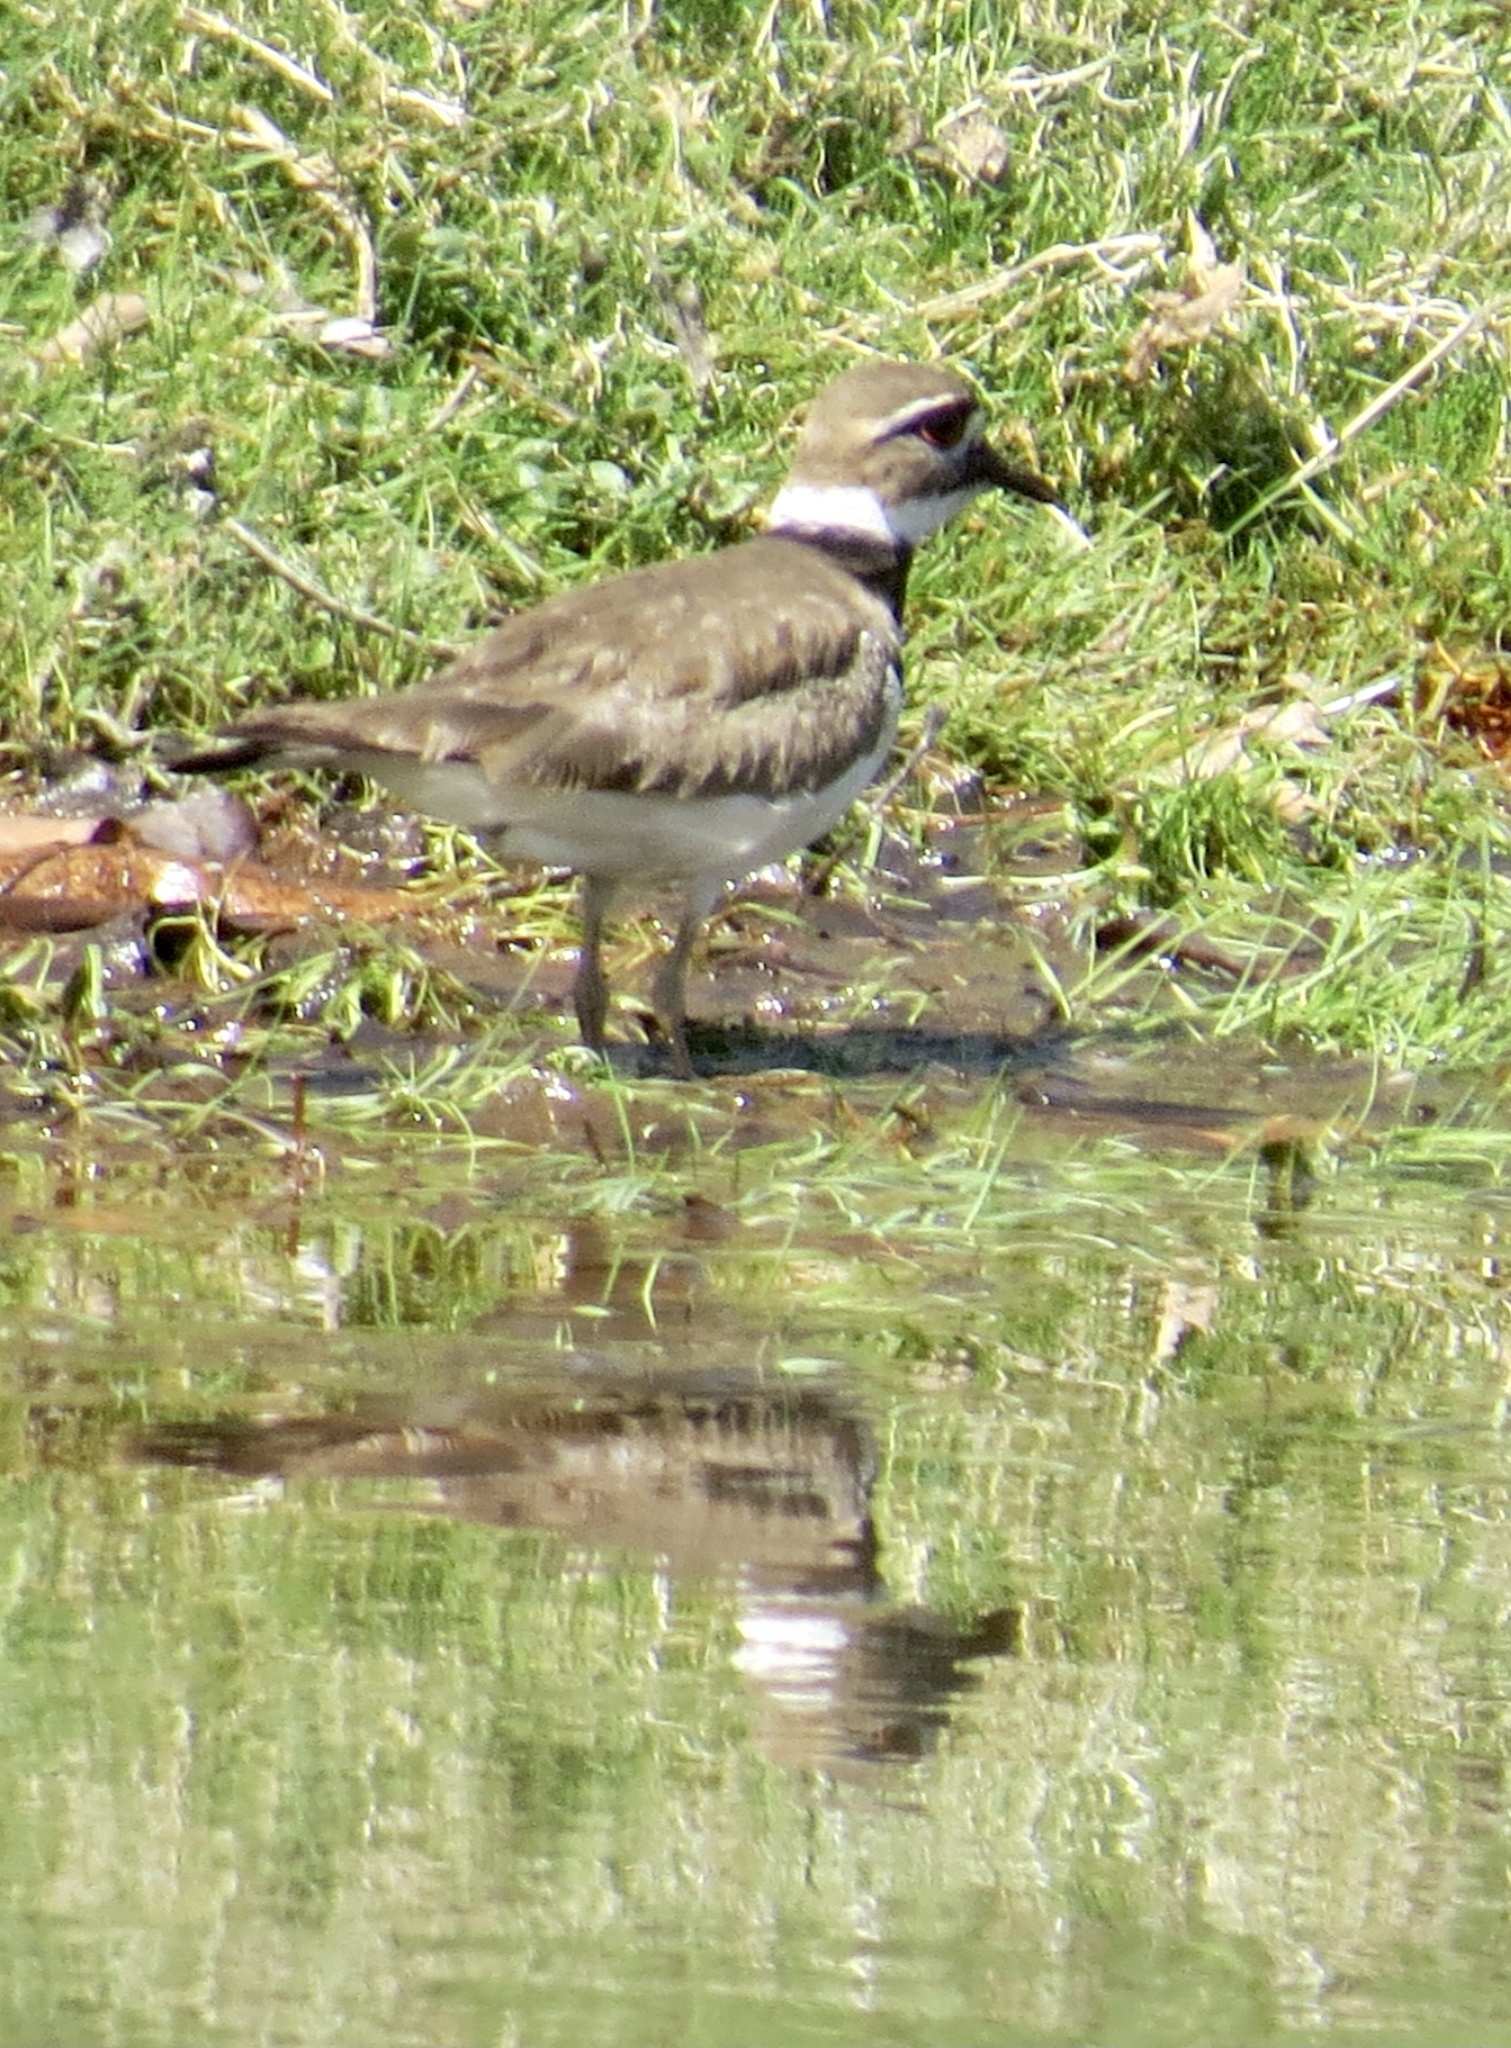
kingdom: Animalia
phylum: Chordata
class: Aves
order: Charadriiformes
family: Charadriidae
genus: Charadrius
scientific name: Charadrius vociferus
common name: Killdeer
